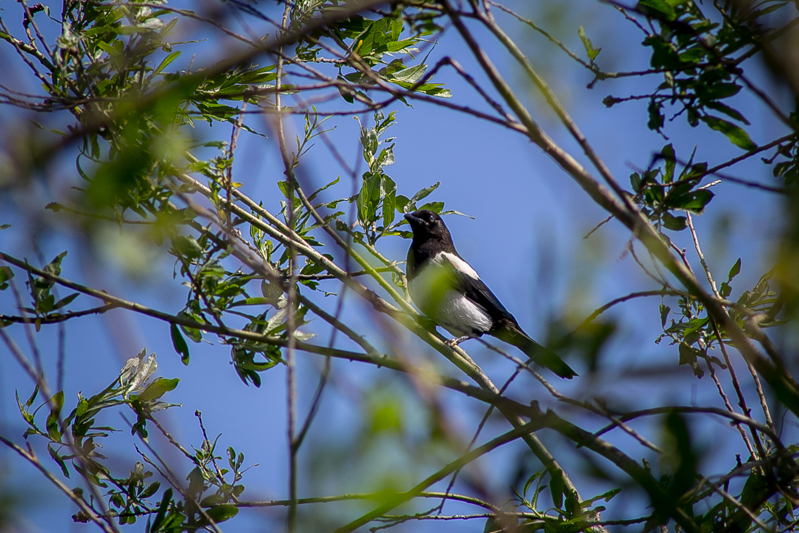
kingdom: Animalia
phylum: Chordata
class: Aves
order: Passeriformes
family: Corvidae
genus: Pica
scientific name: Pica pica
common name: Eurasian magpie
